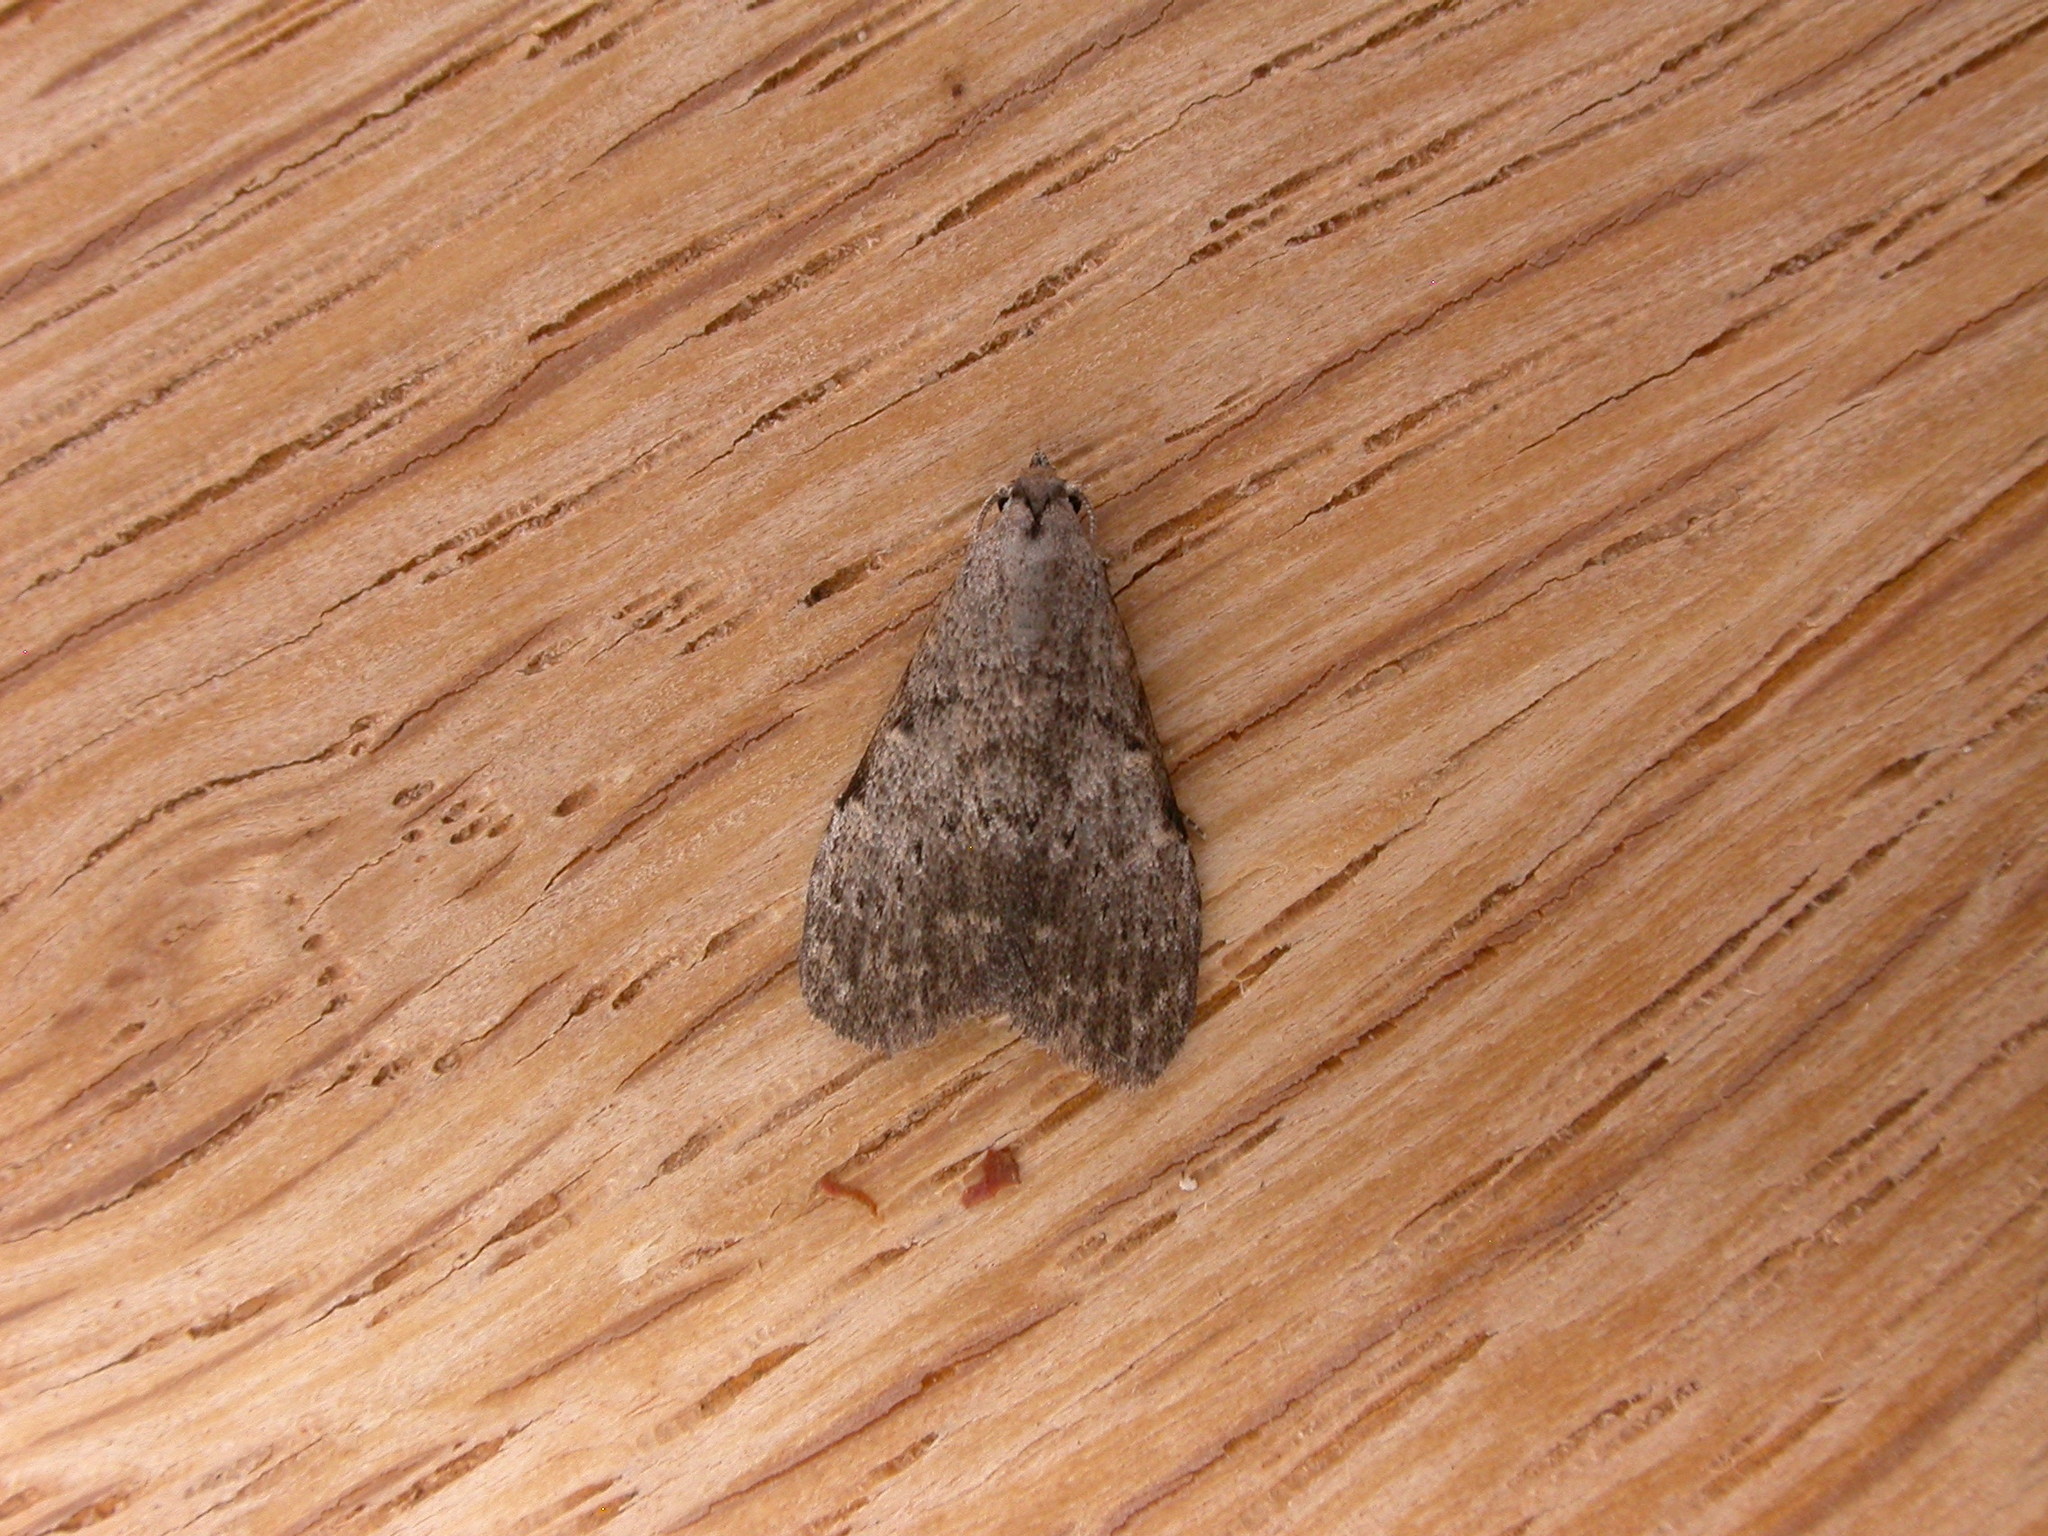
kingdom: Animalia
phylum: Arthropoda
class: Insecta
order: Lepidoptera
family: Nolidae
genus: Nola
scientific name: Nola pleurosema
